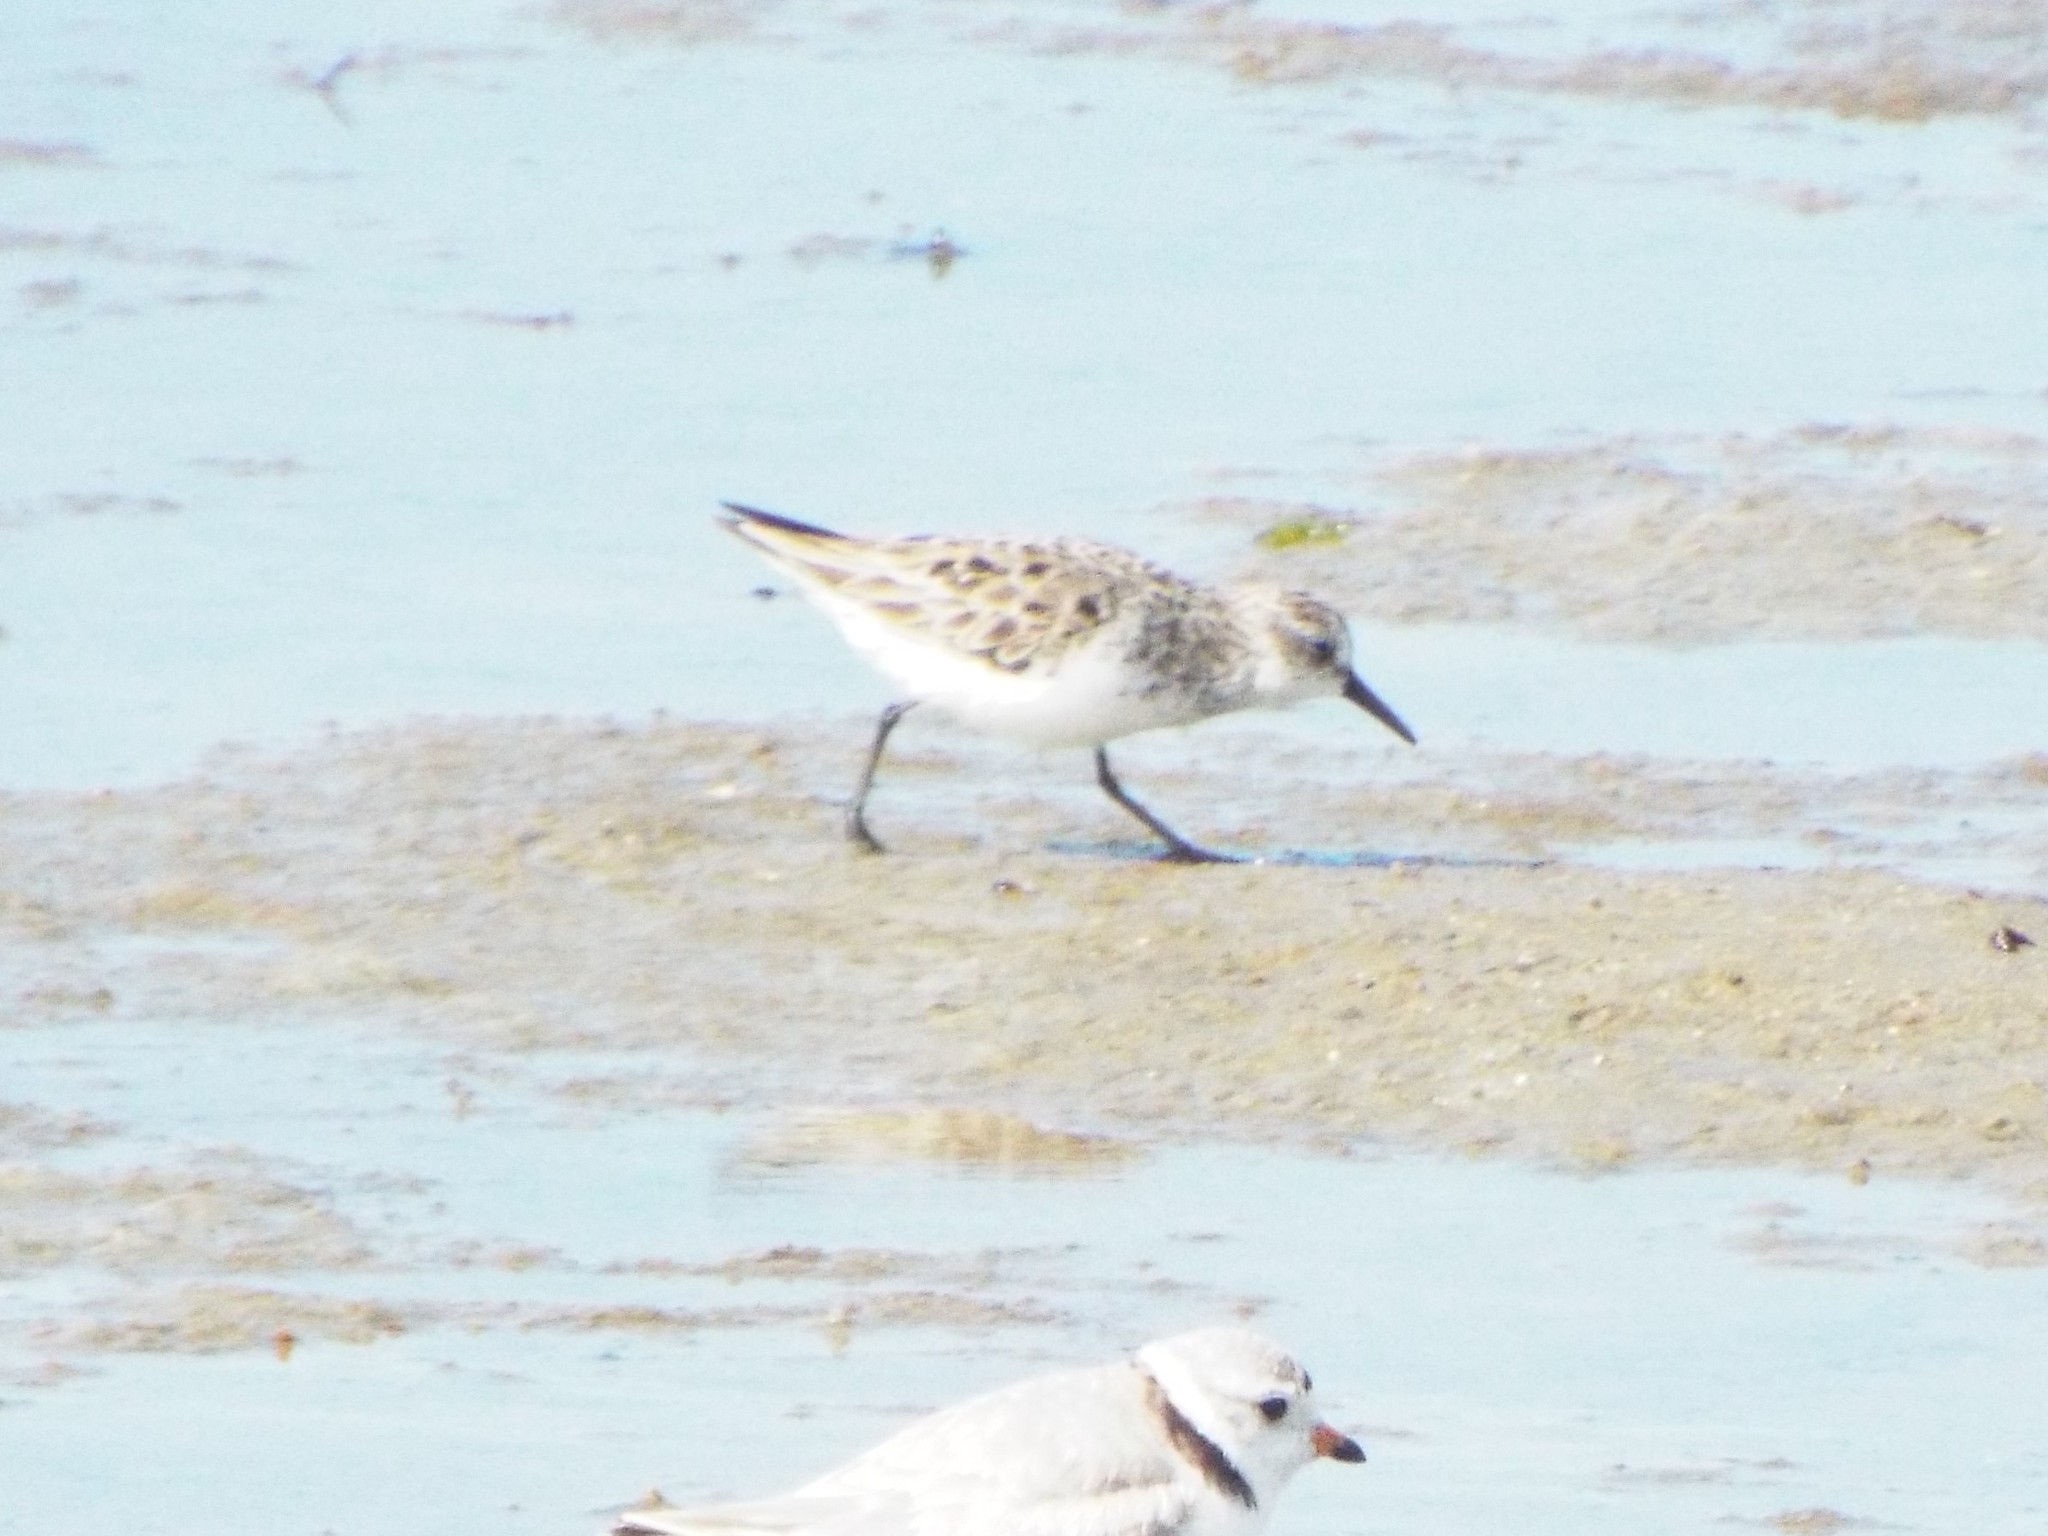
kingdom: Animalia
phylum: Chordata
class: Aves
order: Charadriiformes
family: Scolopacidae
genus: Calidris
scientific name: Calidris pusilla
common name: Semipalmated sandpiper
